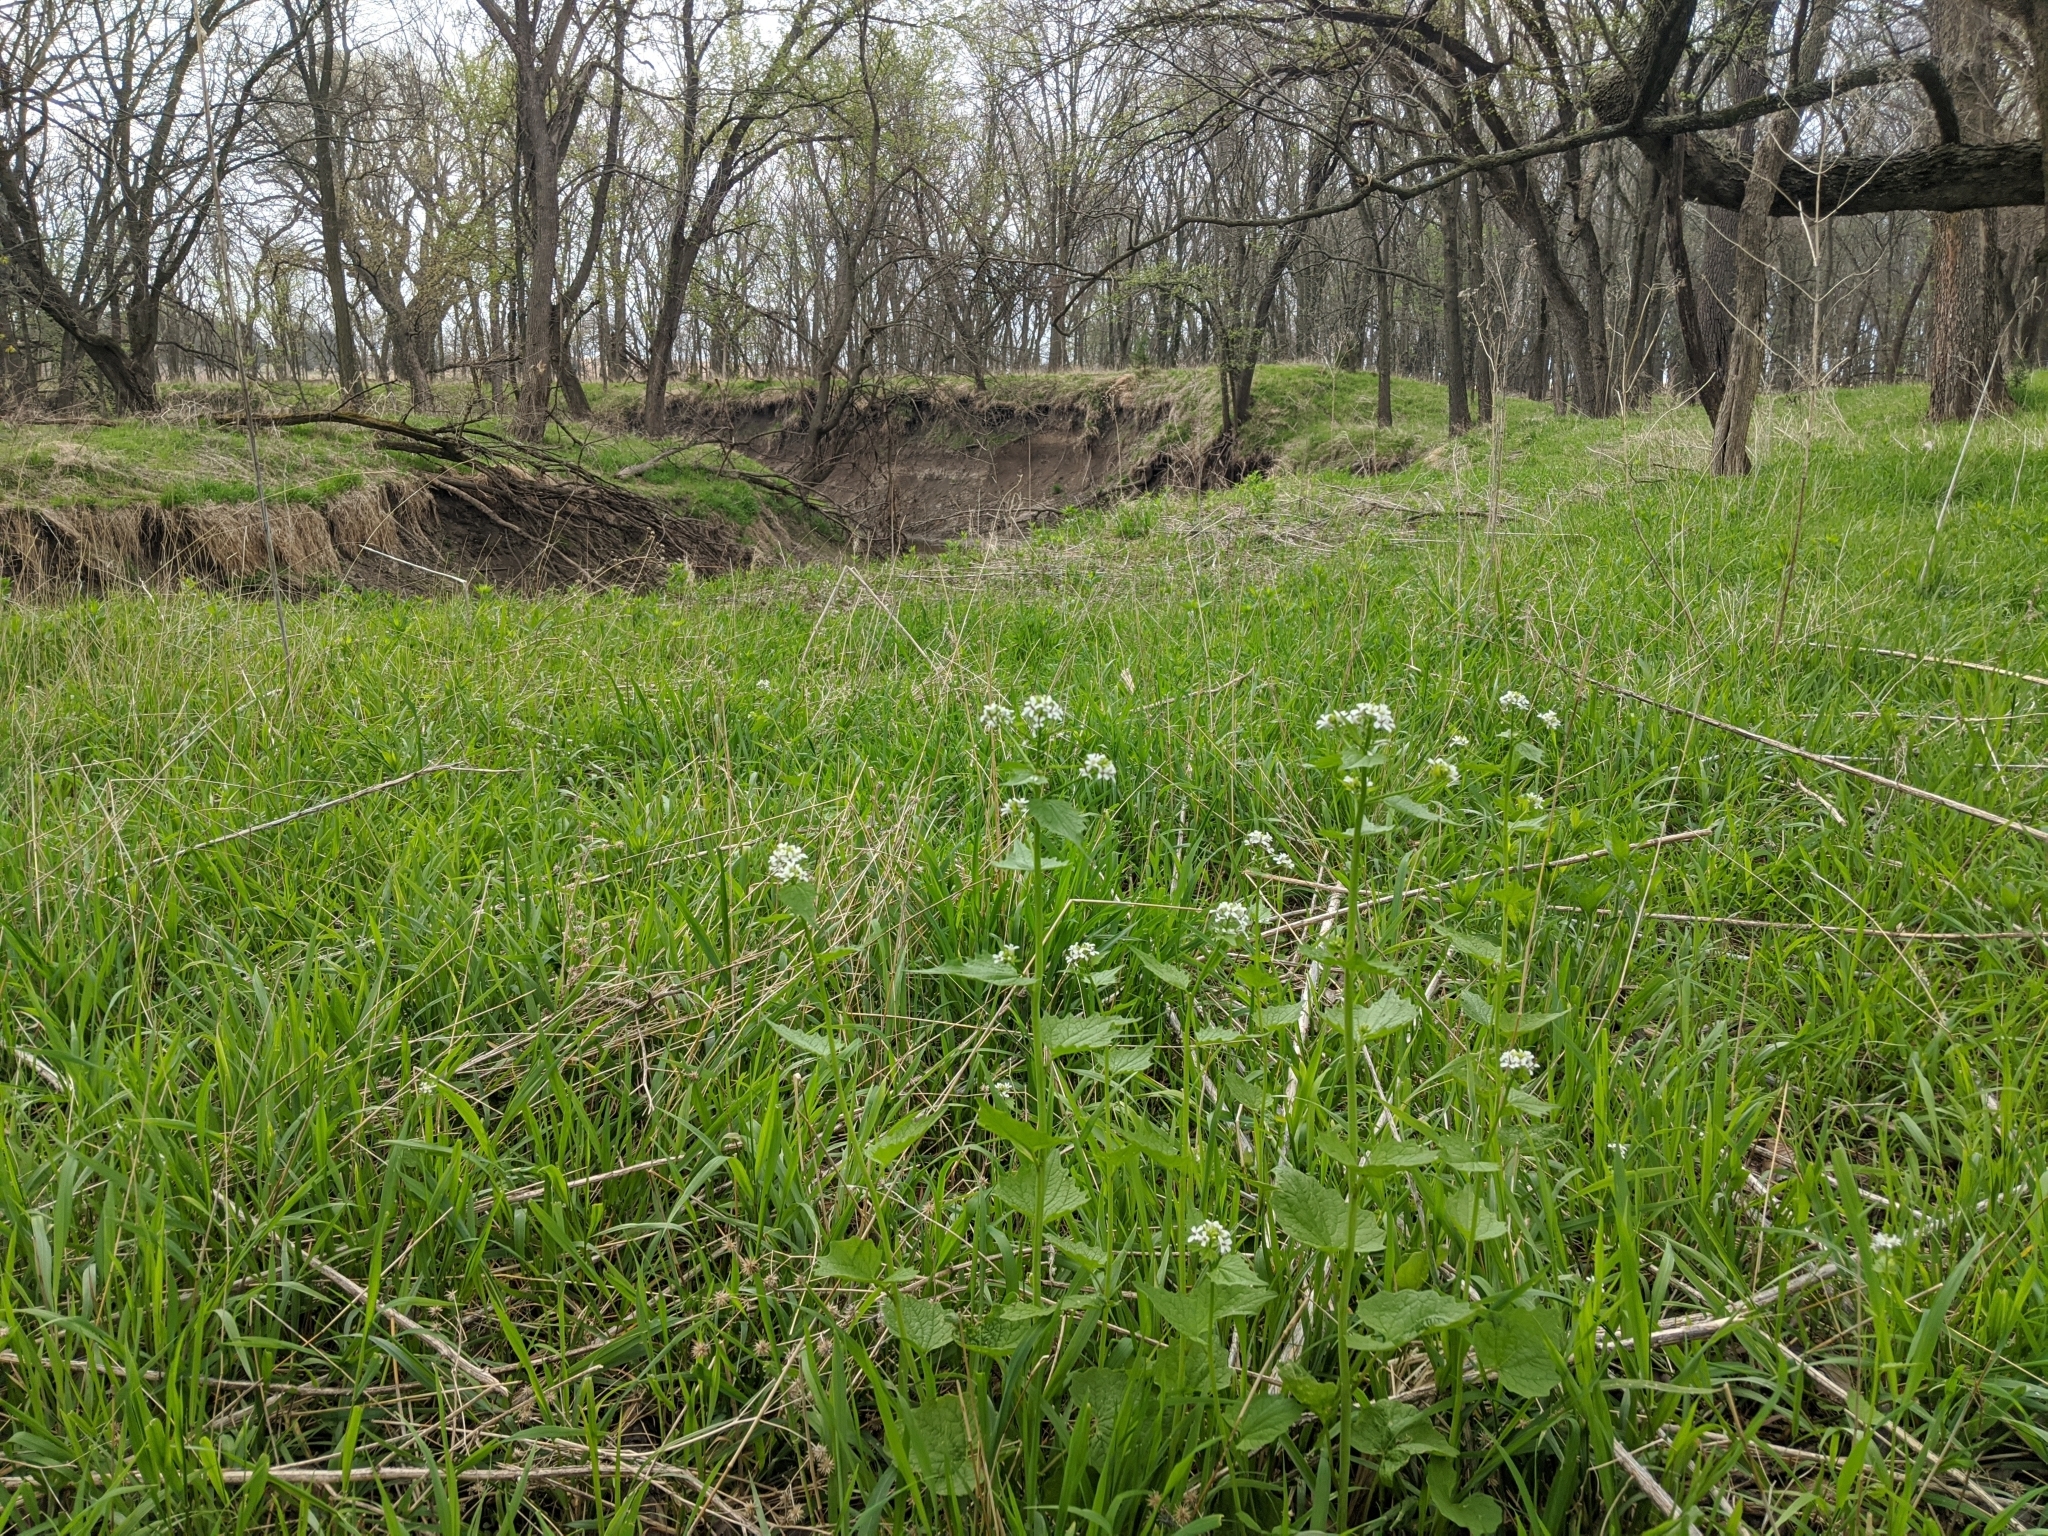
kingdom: Plantae
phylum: Tracheophyta
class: Magnoliopsida
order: Brassicales
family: Brassicaceae
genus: Alliaria
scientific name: Alliaria petiolata
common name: Garlic mustard
